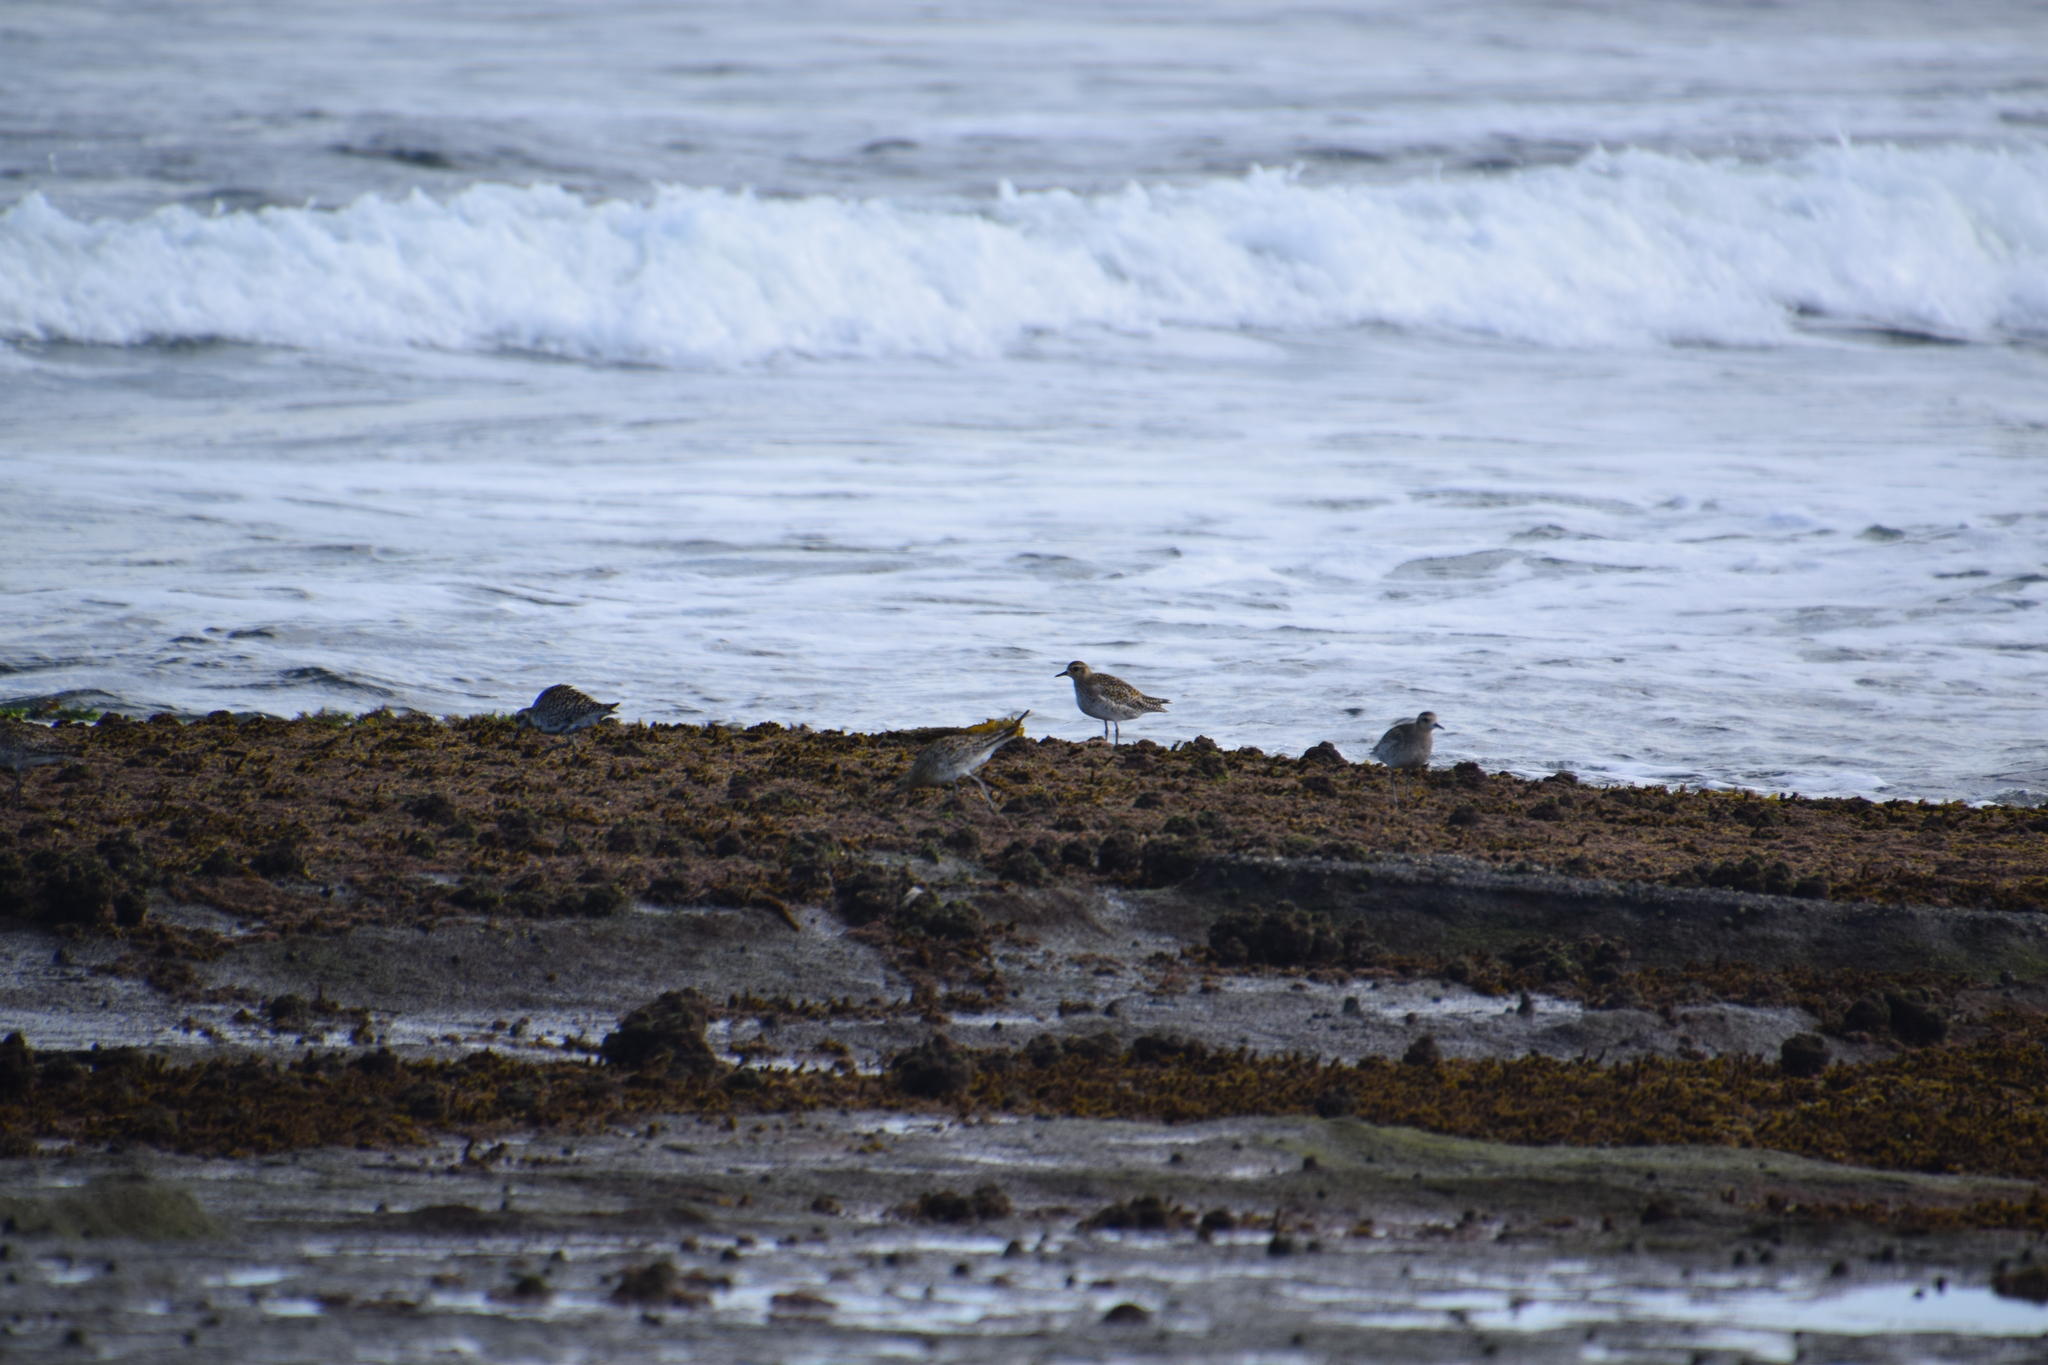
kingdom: Animalia
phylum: Chordata
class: Aves
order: Charadriiformes
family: Charadriidae
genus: Pluvialis
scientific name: Pluvialis fulva
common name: Pacific golden plover
